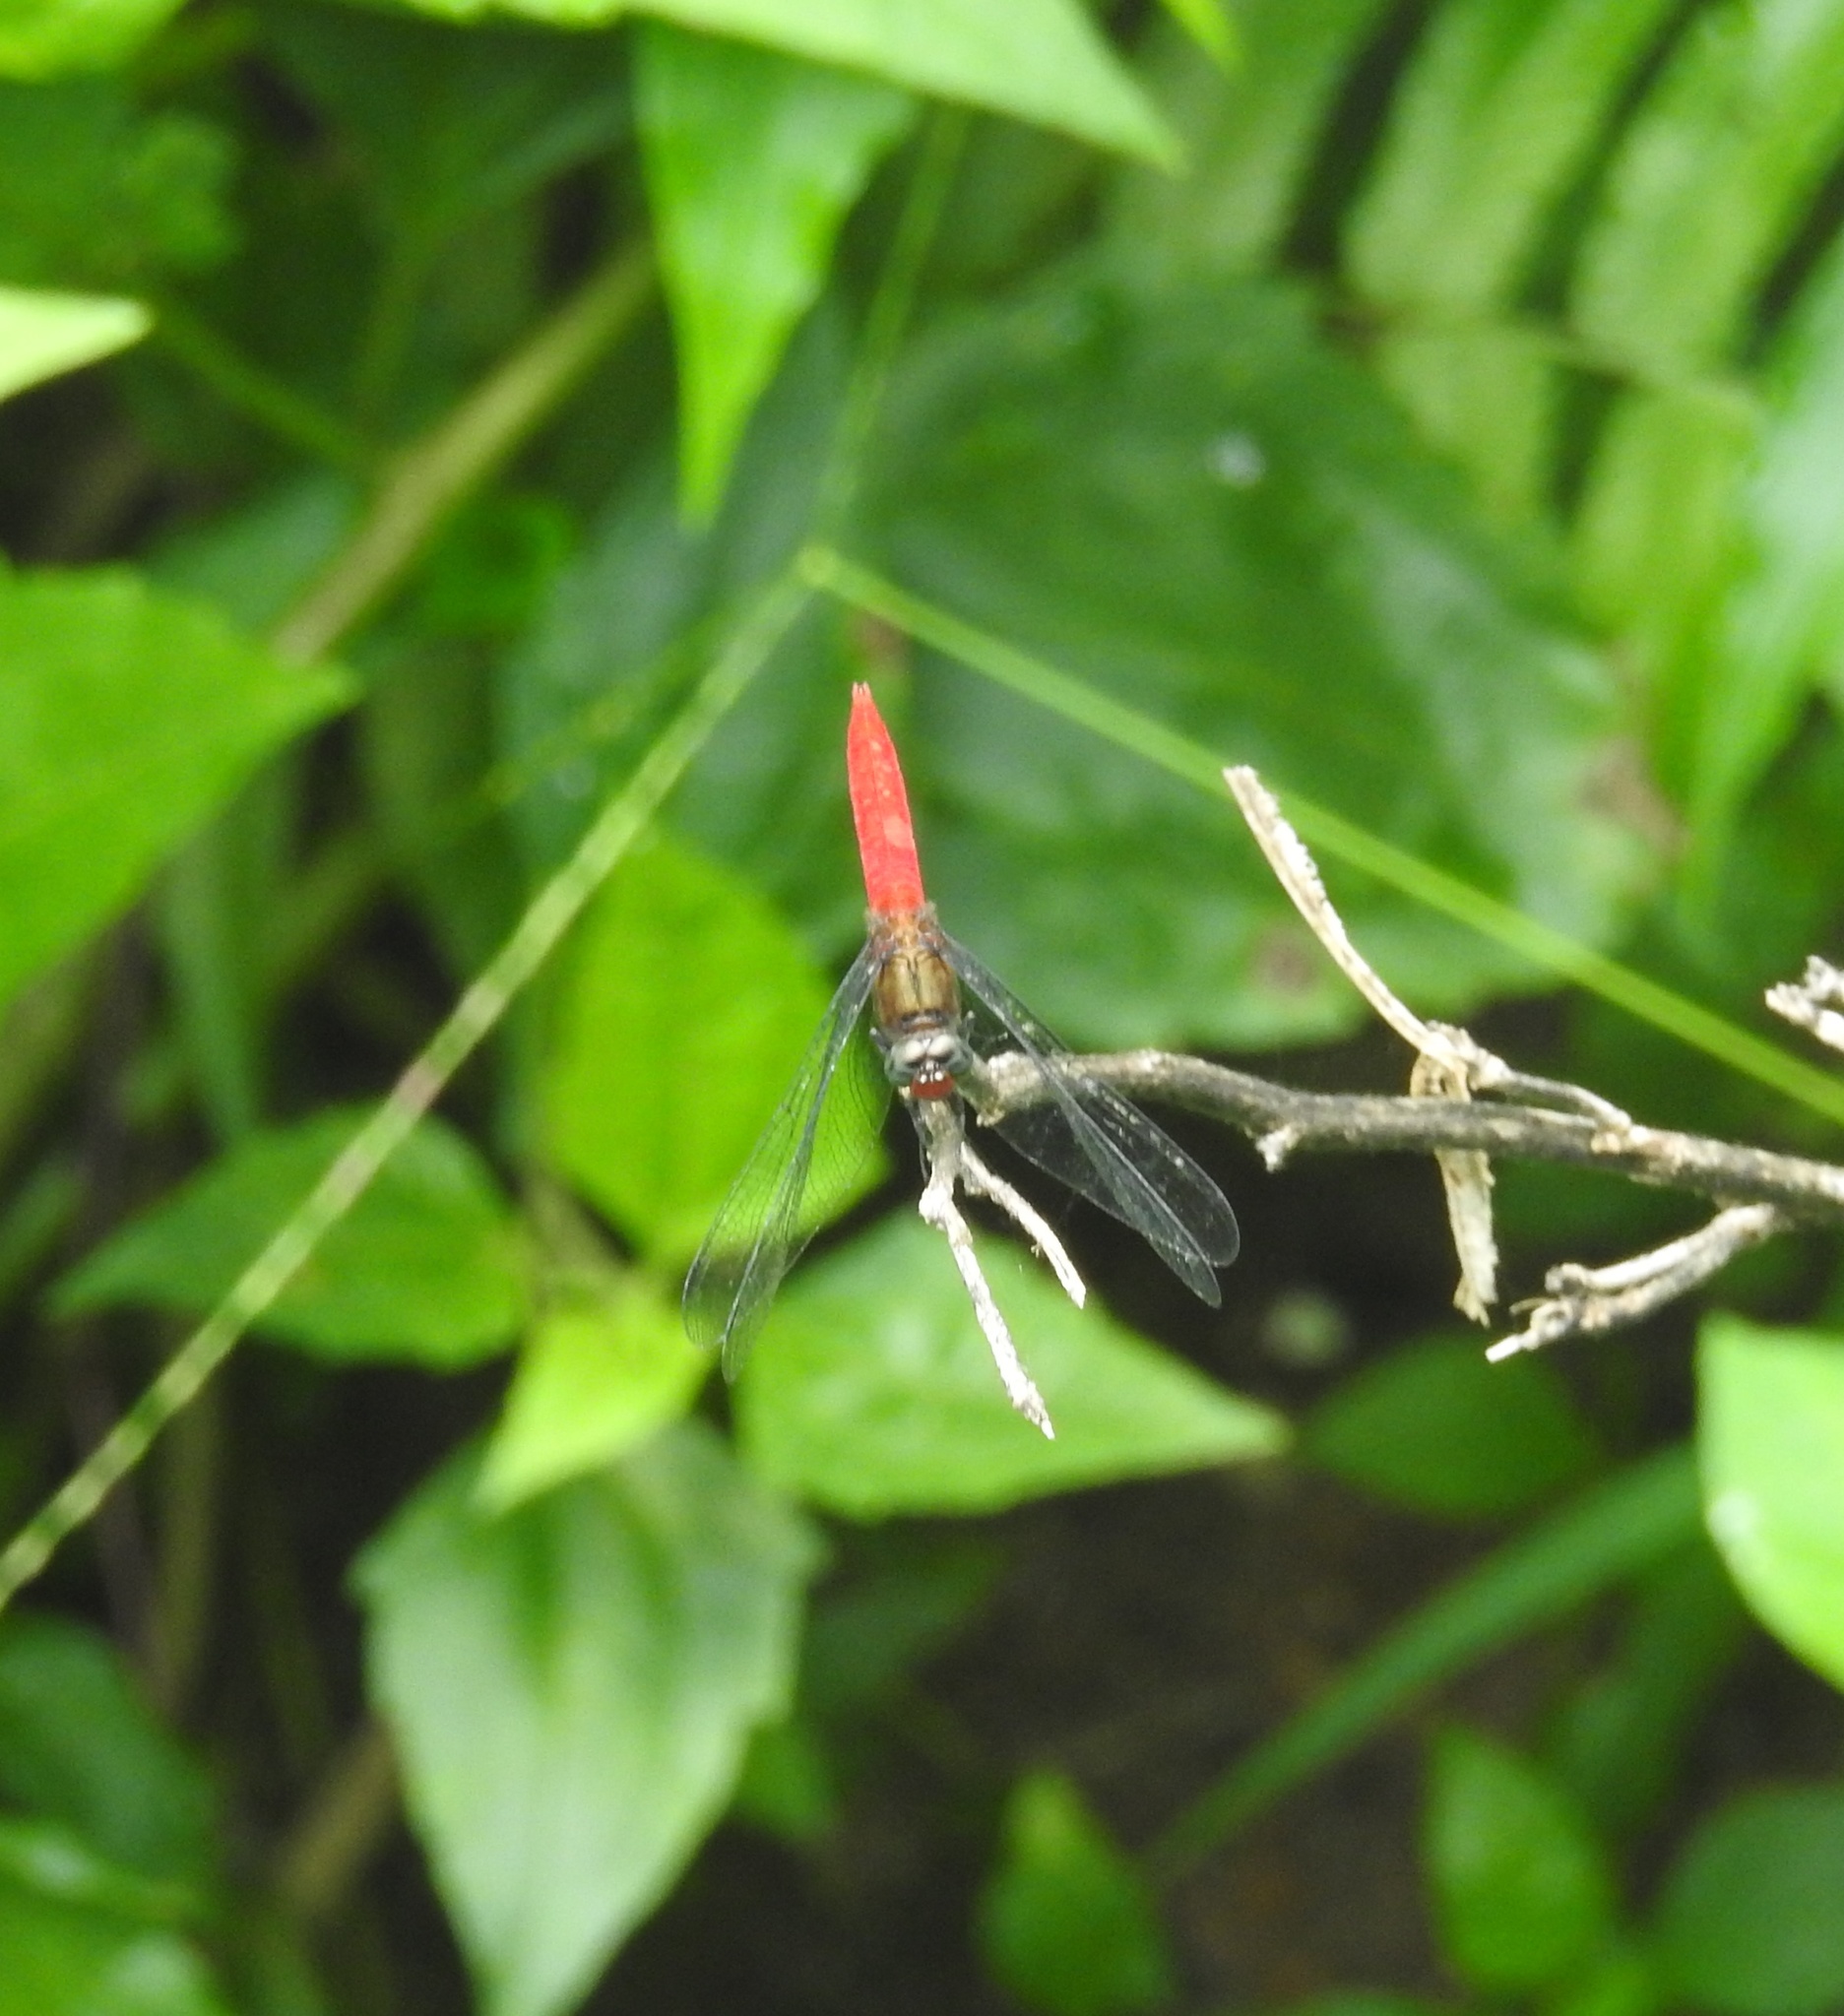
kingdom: Animalia
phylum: Arthropoda
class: Insecta
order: Odonata
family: Libellulidae
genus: Orthetrum
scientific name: Orthetrum chrysis
